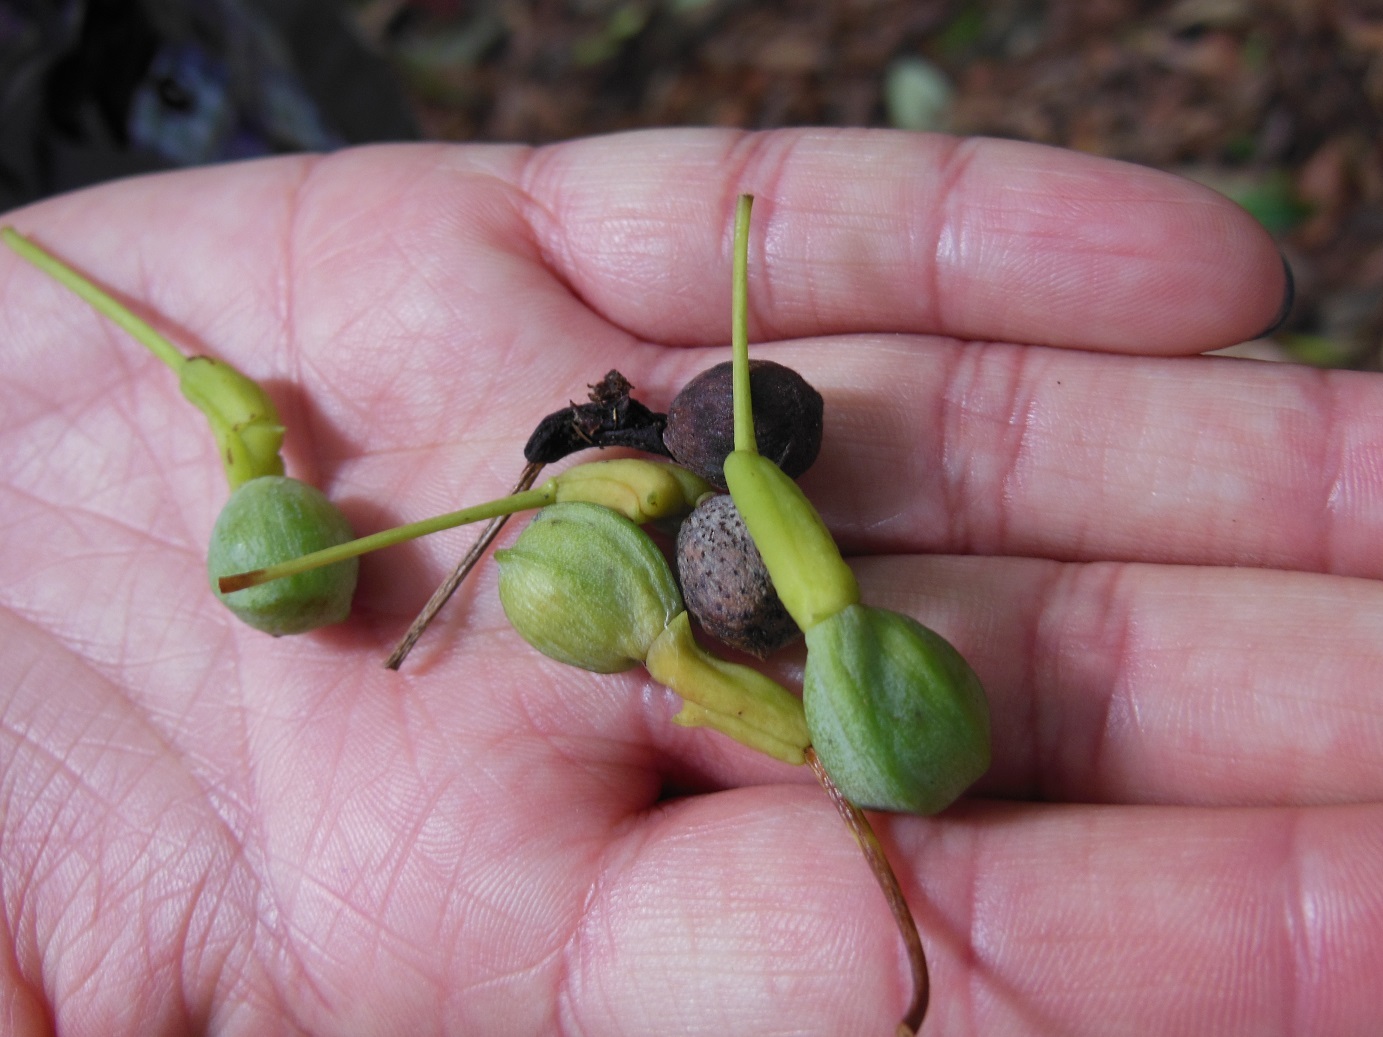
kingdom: Plantae
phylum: Tracheophyta
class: Pinopsida
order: Pinales
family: Podocarpaceae
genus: Podocarpus
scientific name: Podocarpus matudae
